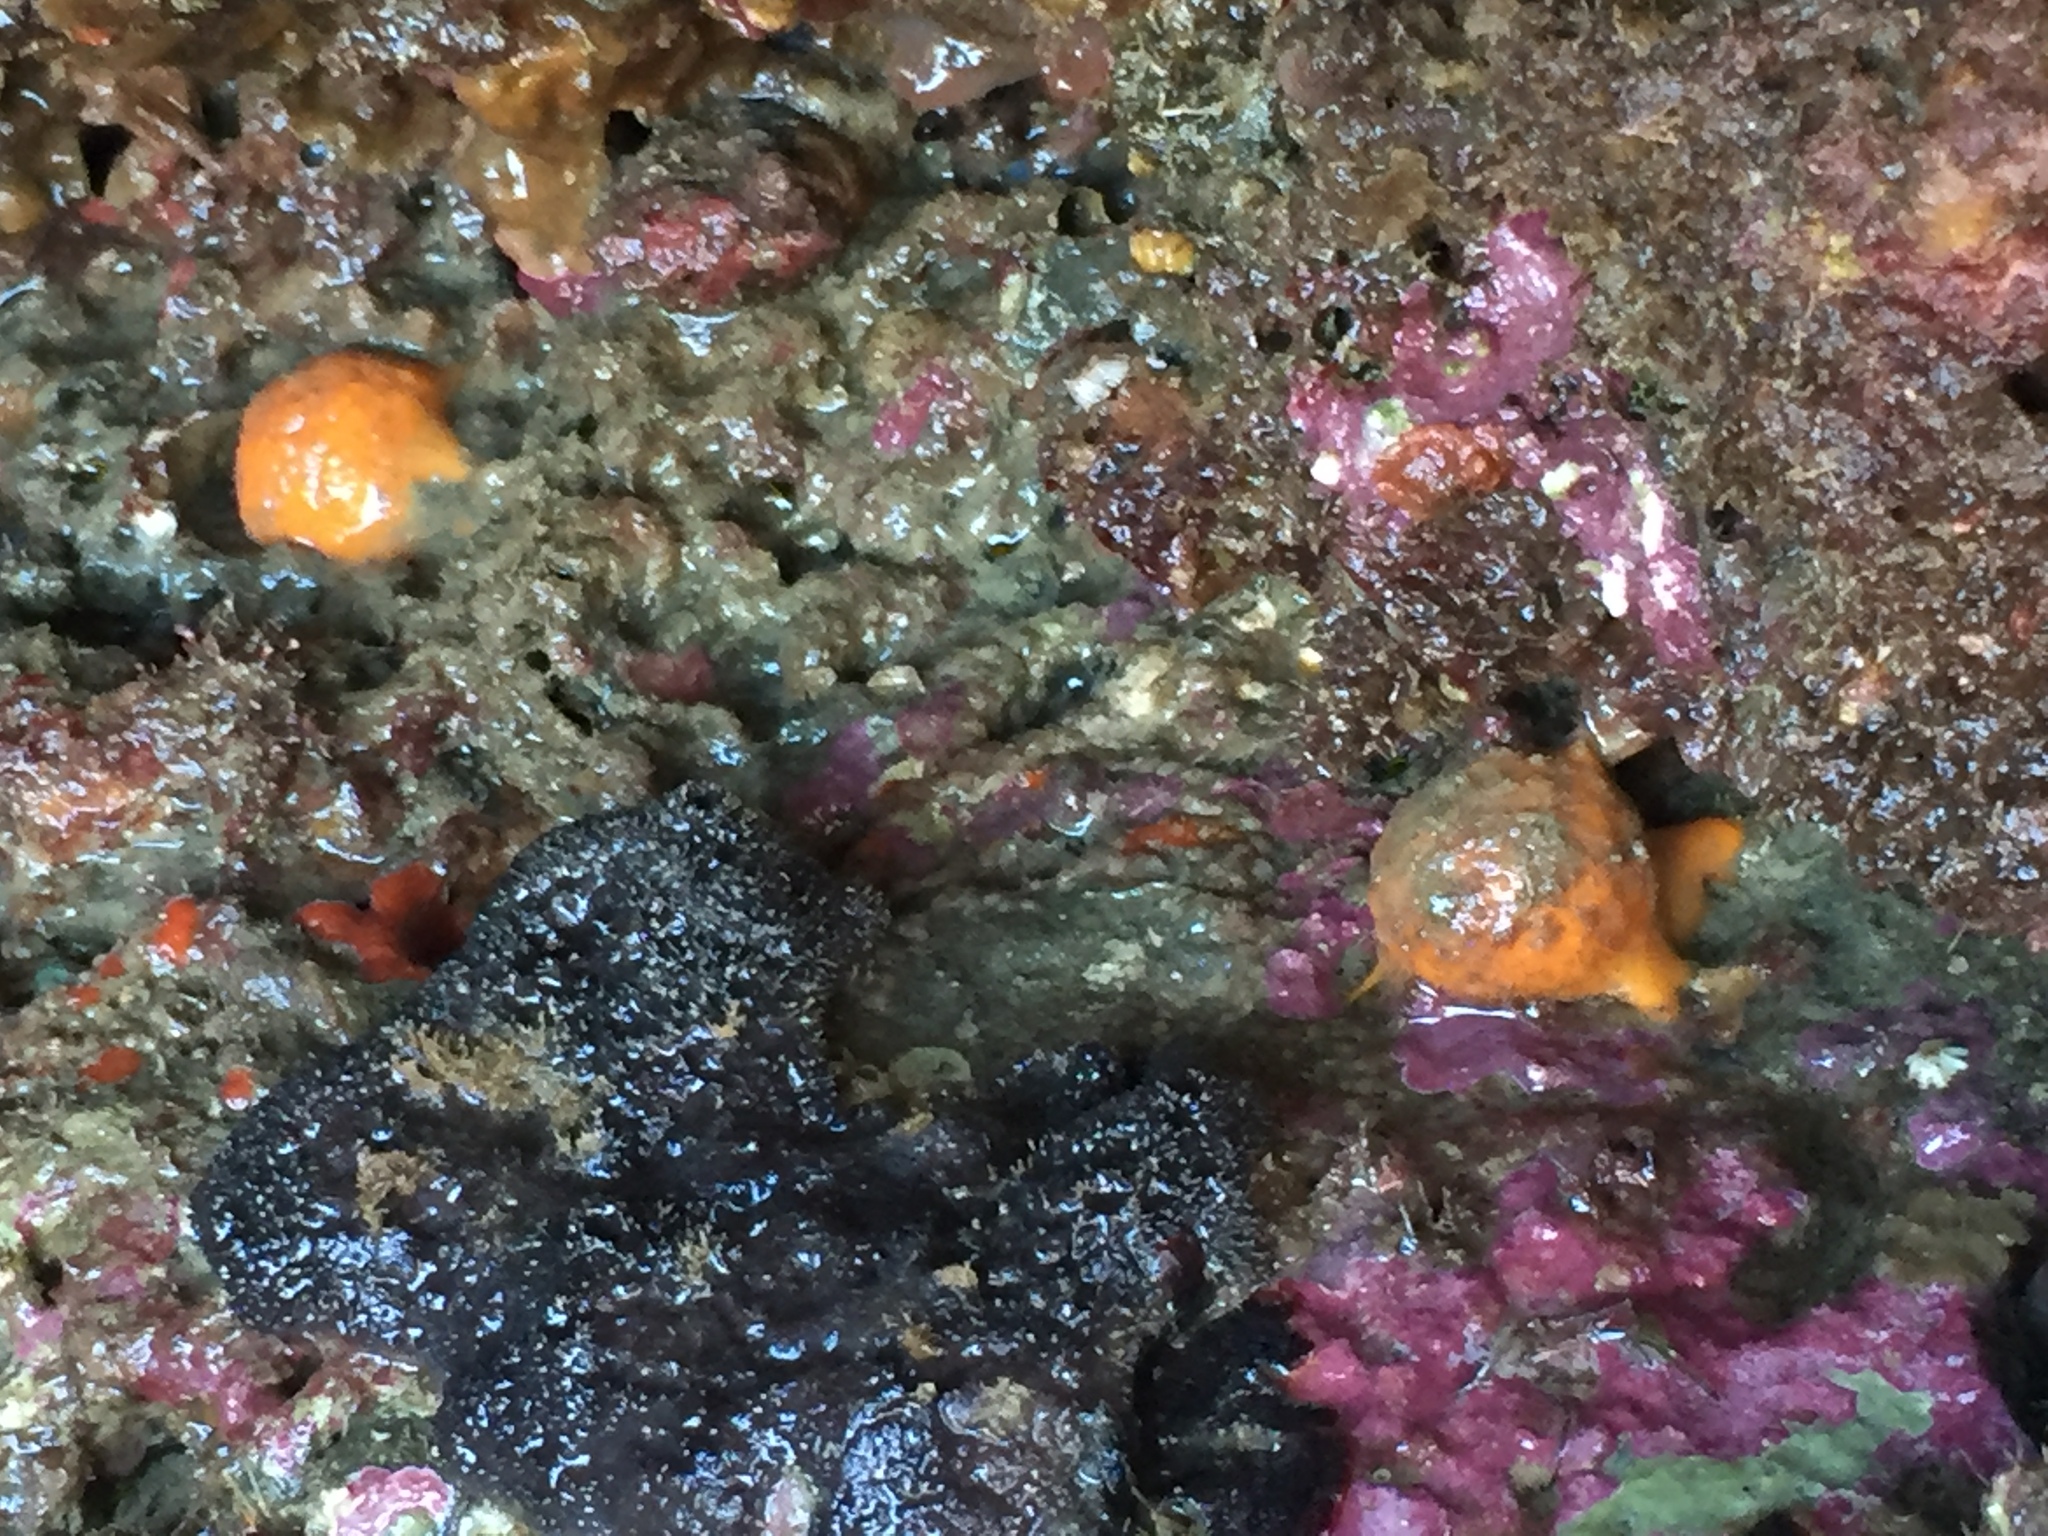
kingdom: Animalia
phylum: Porifera
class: Demospongiae
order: Tethyida
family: Tethyidae
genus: Tethya
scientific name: Tethya burtoni
